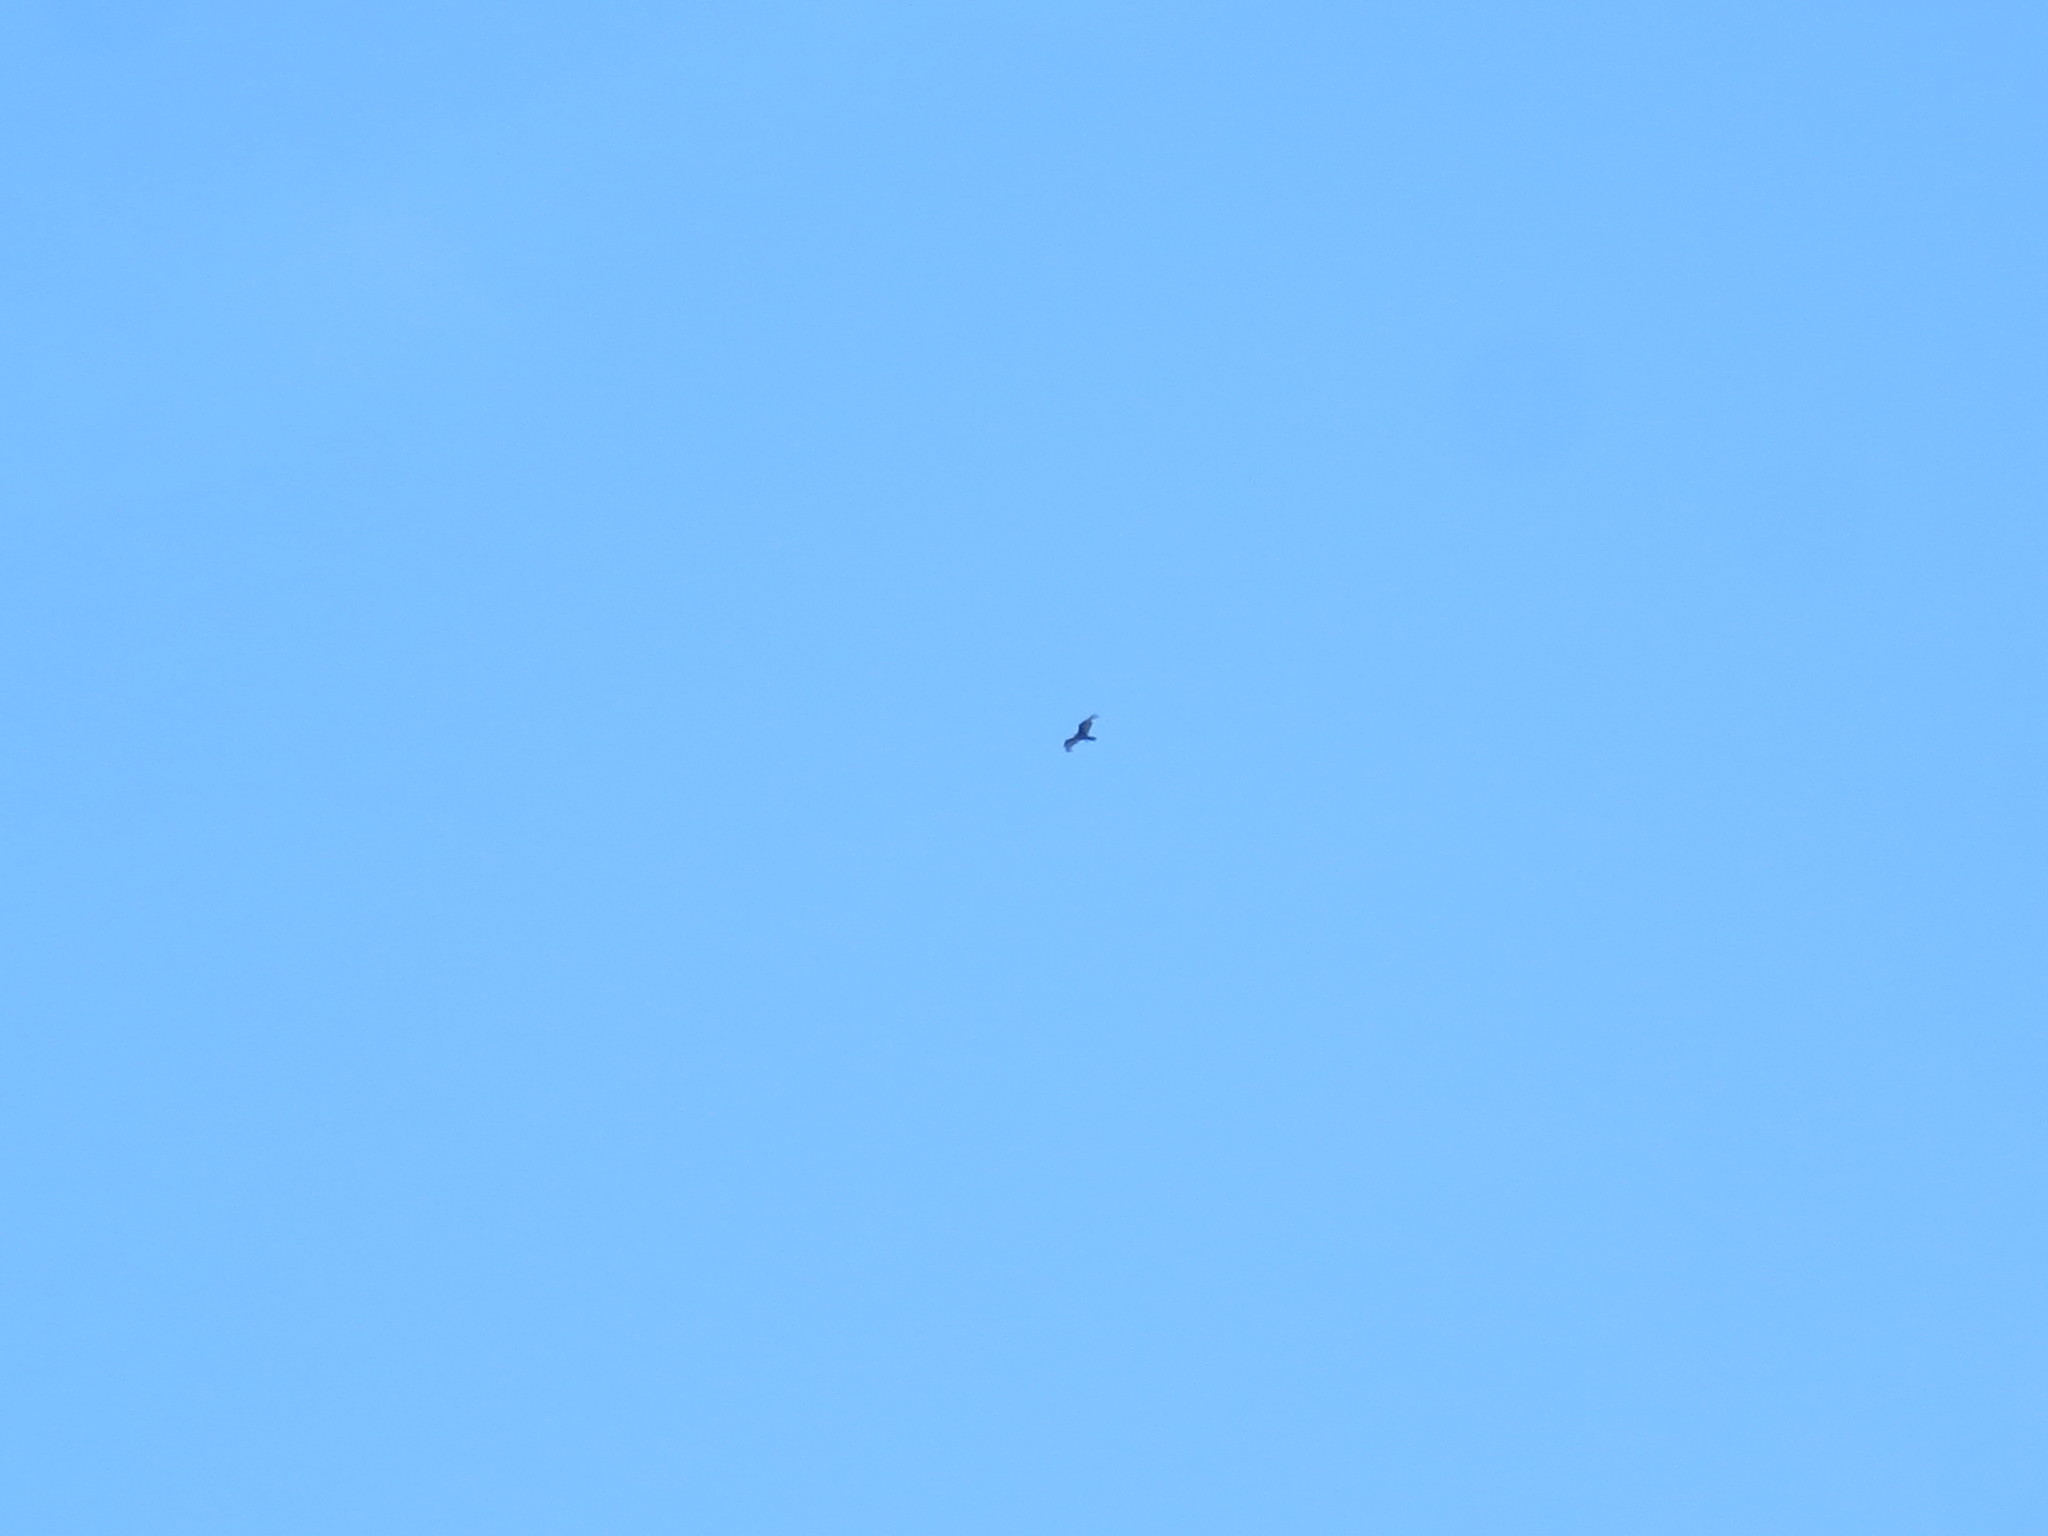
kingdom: Animalia
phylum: Chordata
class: Aves
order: Accipitriformes
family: Cathartidae
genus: Cathartes
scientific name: Cathartes aura
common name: Turkey vulture
